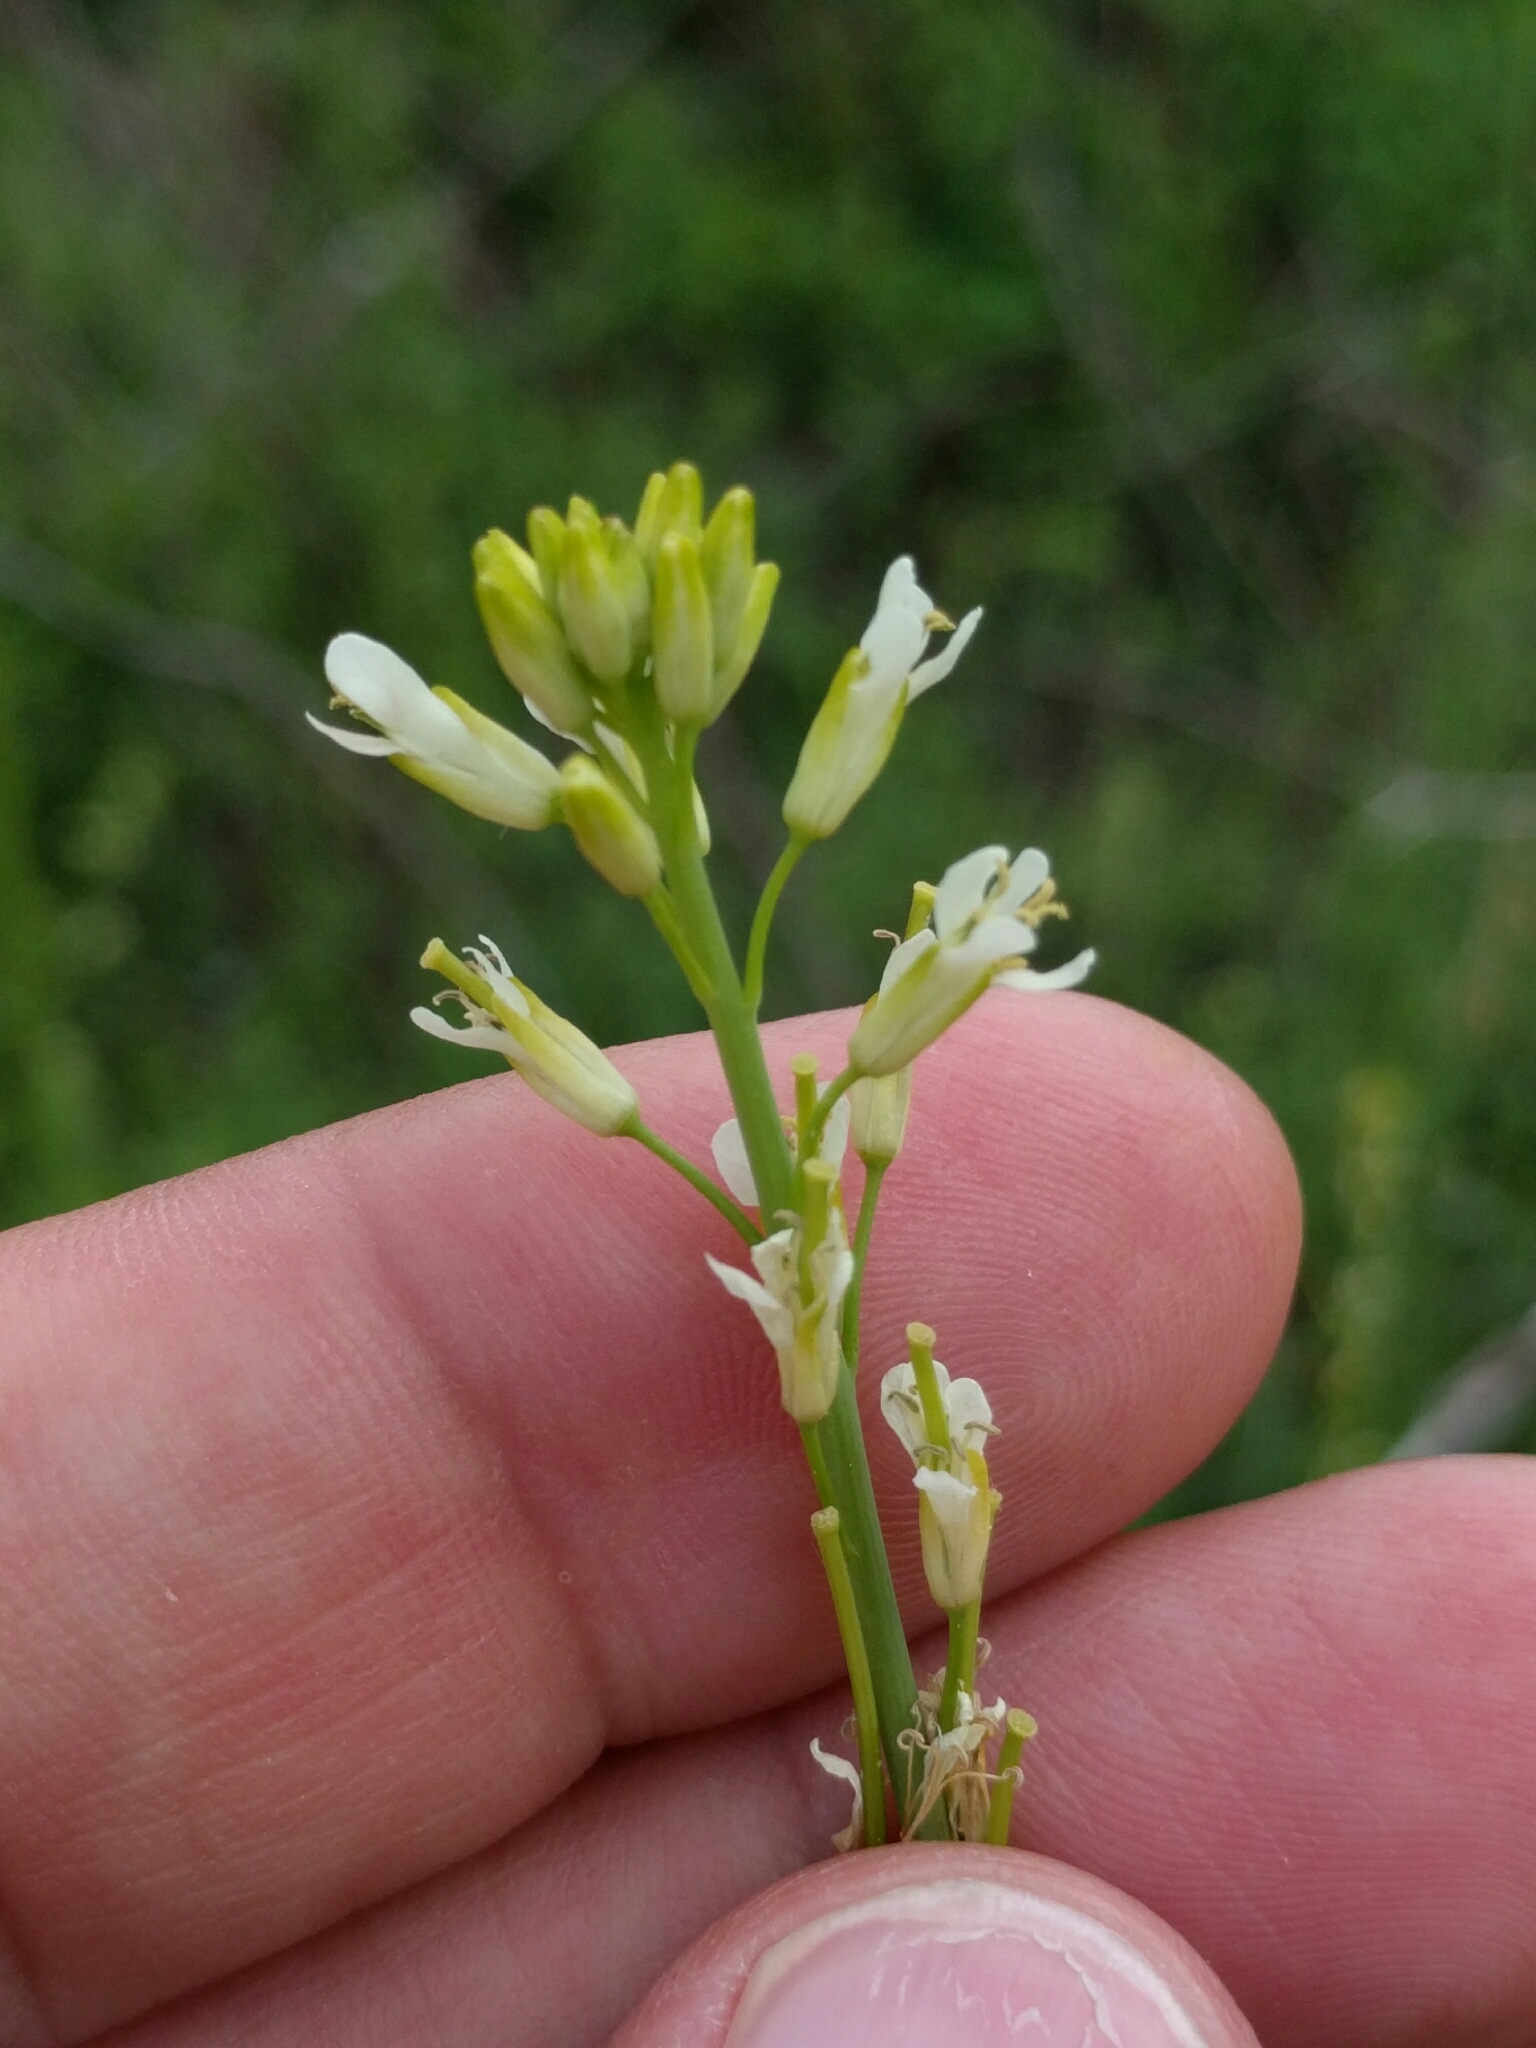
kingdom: Plantae
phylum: Tracheophyta
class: Magnoliopsida
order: Brassicales
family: Brassicaceae
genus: Turritis
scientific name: Turritis glabra
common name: Tower rockcress
